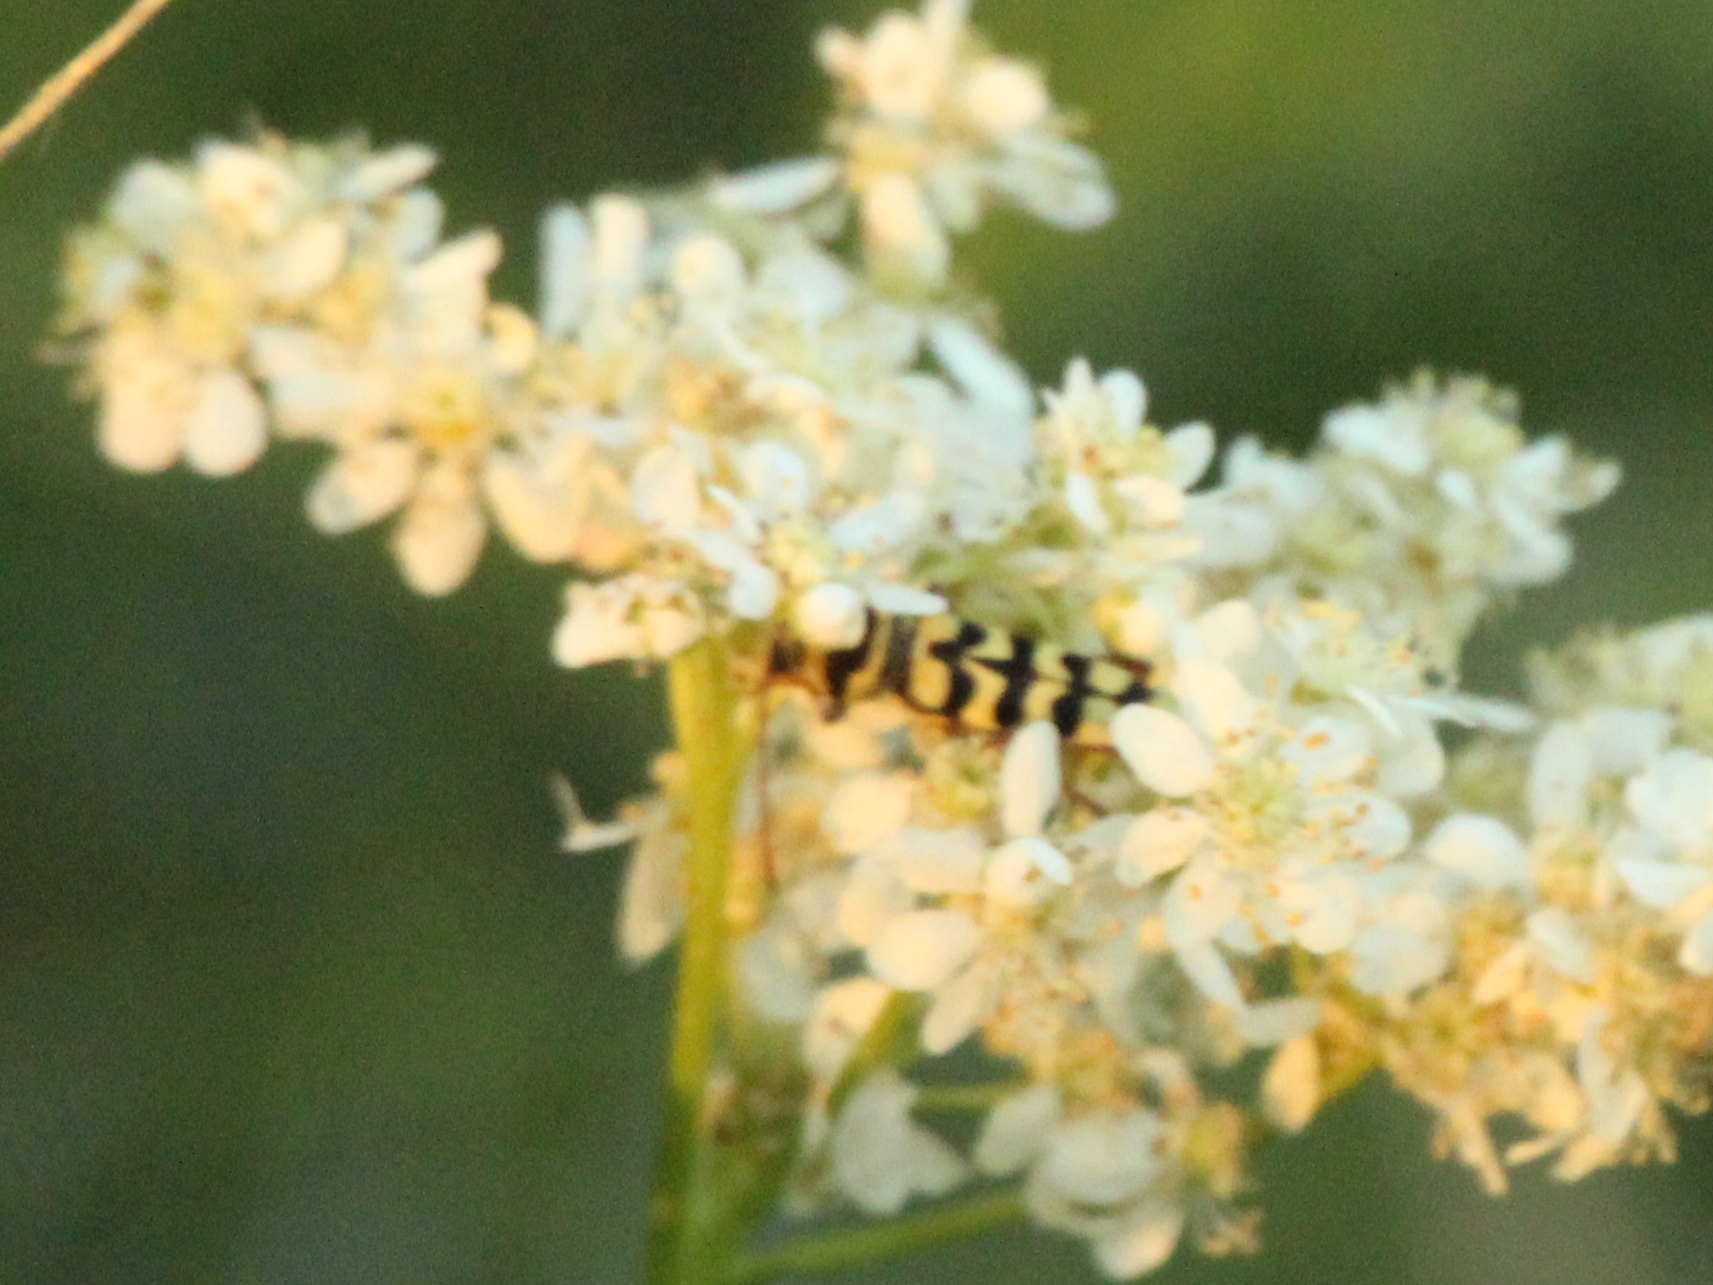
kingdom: Animalia
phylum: Arthropoda
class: Insecta
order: Coleoptera
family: Cerambycidae
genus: Plagionotus
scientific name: Plagionotus floralis
